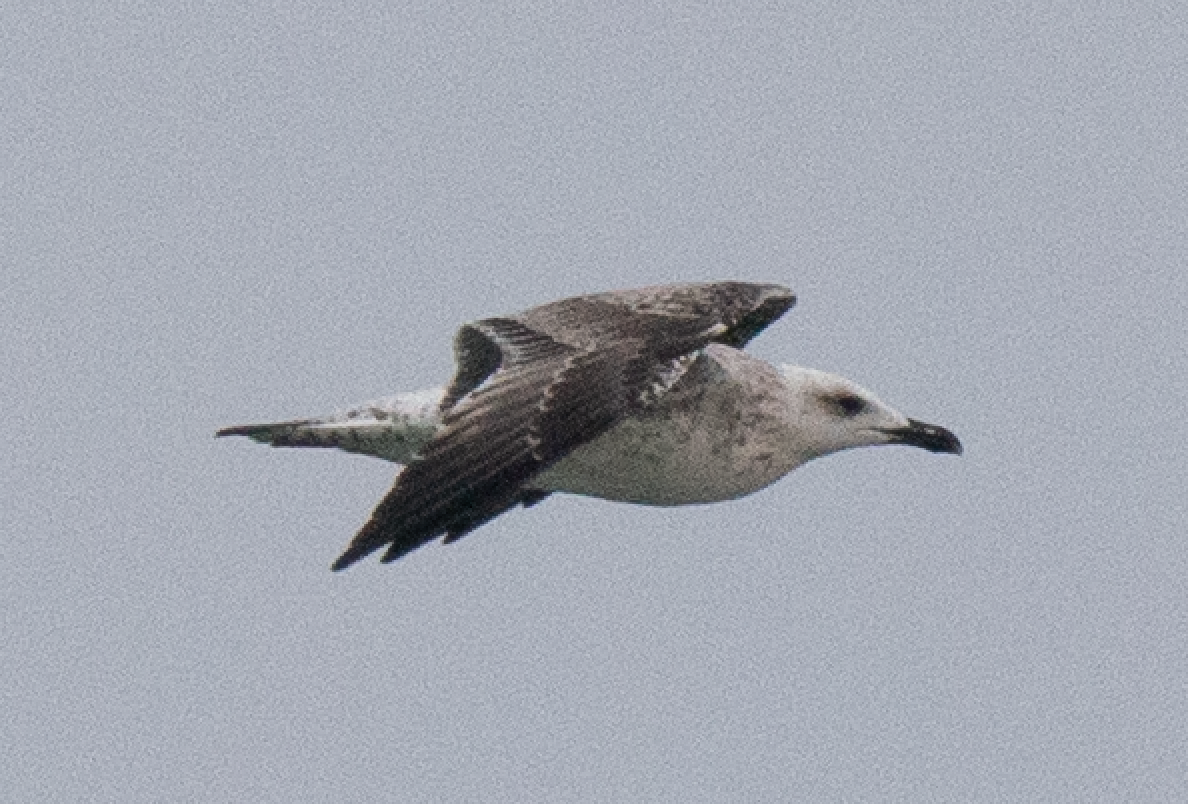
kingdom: Animalia
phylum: Chordata
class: Aves
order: Charadriiformes
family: Laridae
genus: Larus
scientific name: Larus michahellis
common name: Yellow-legged gull
